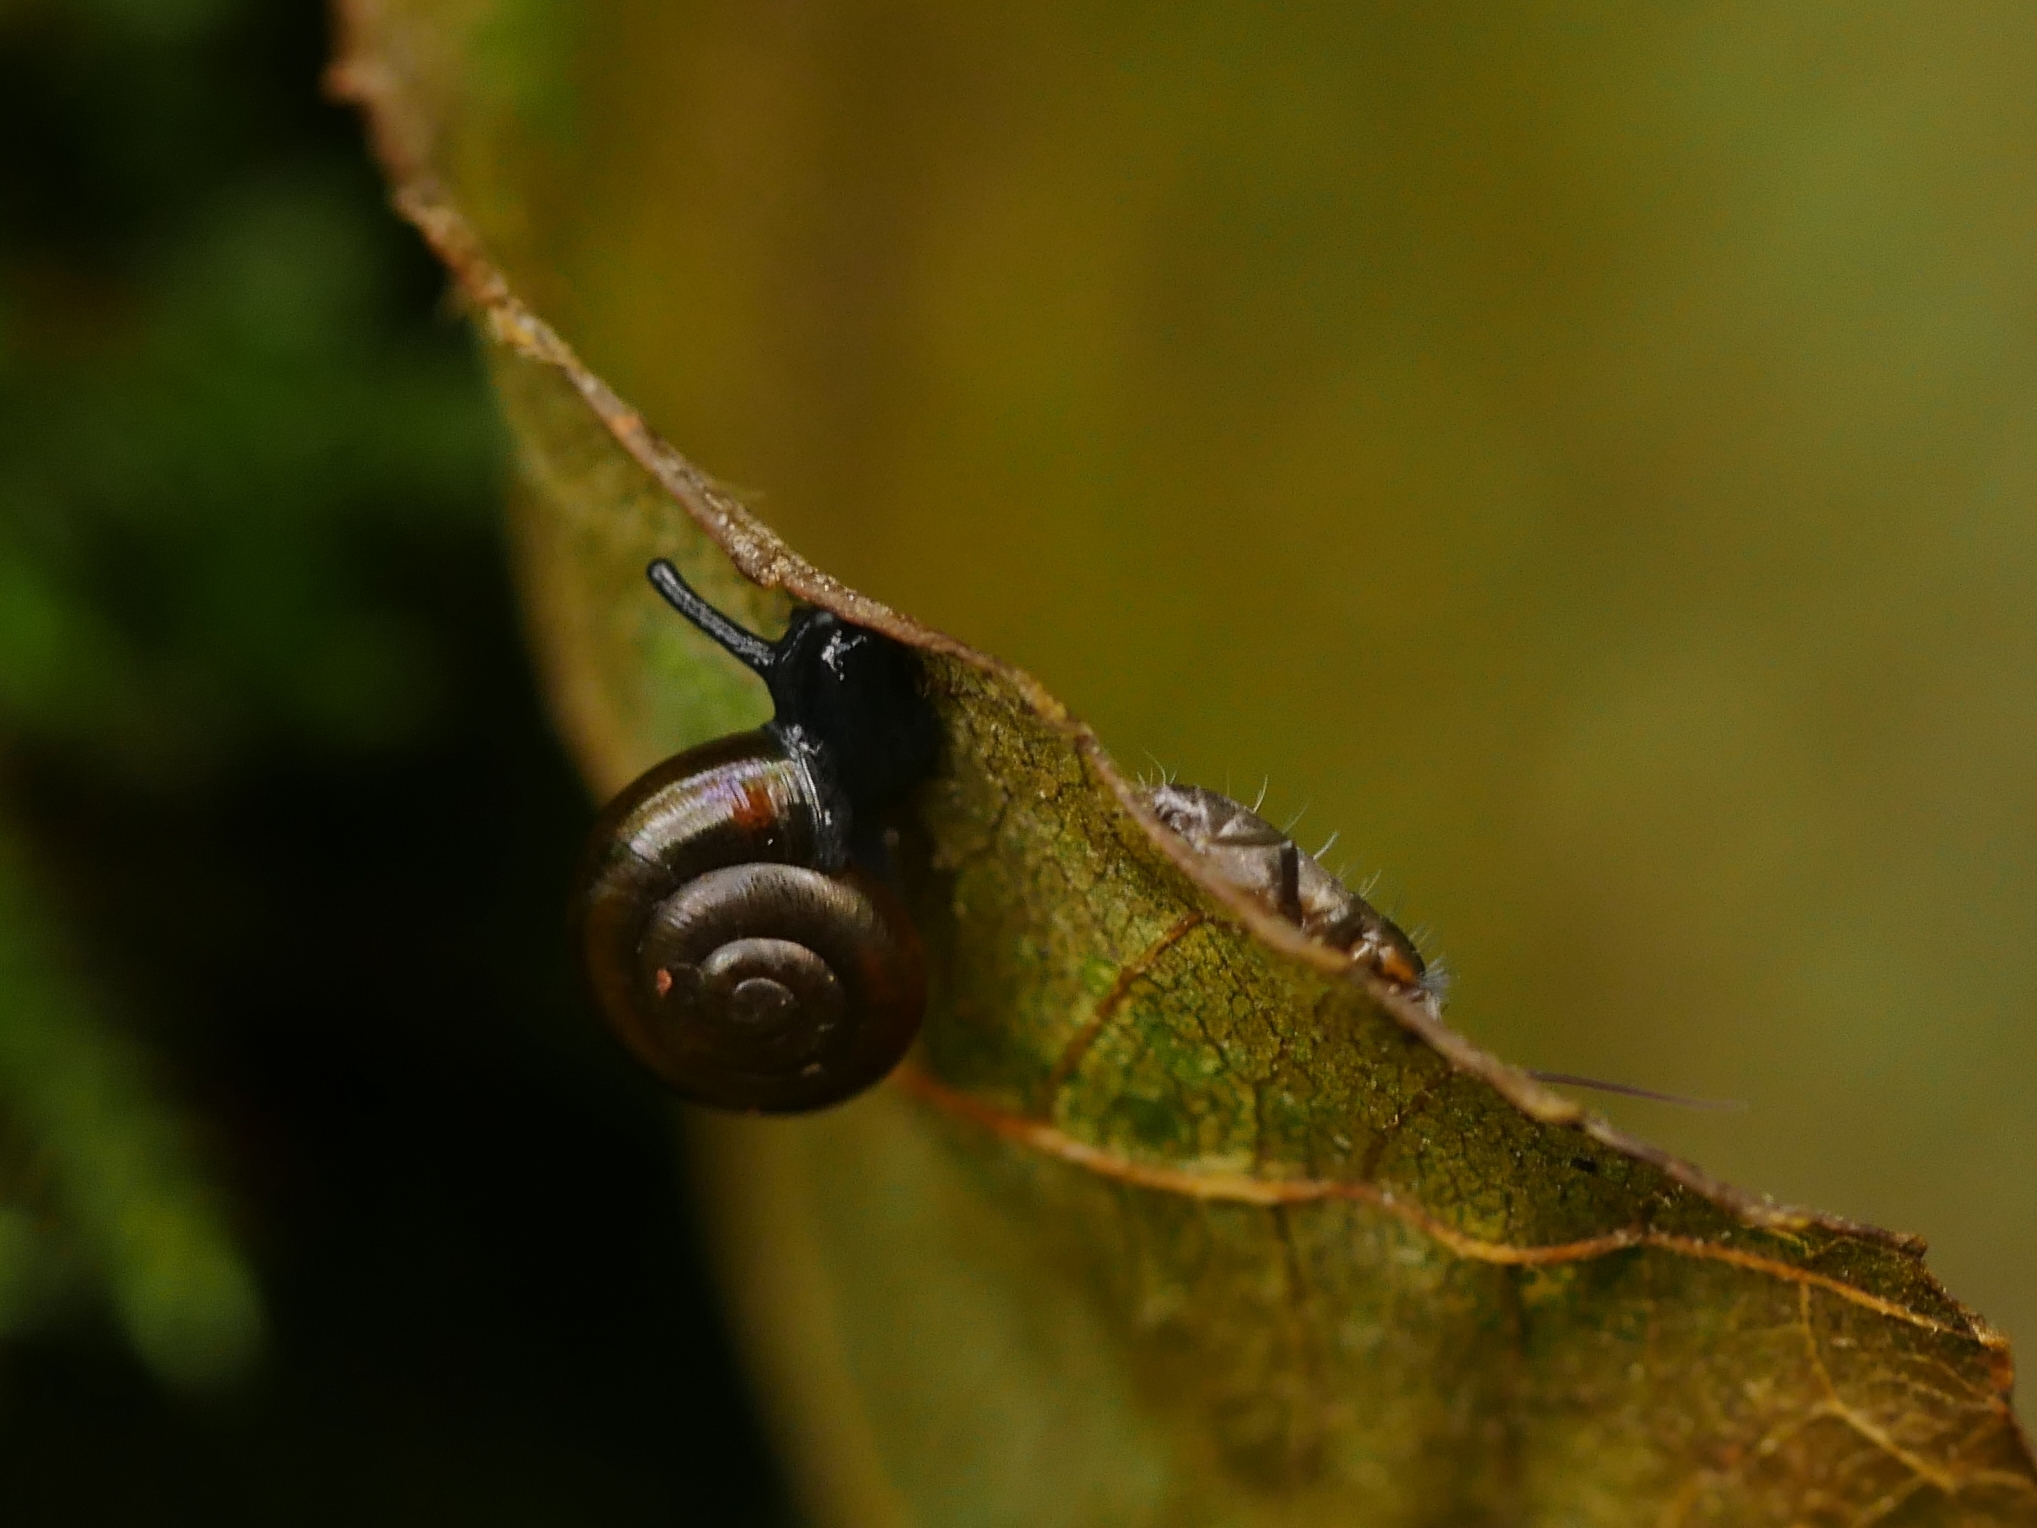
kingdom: Animalia
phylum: Mollusca
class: Gastropoda
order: Stylommatophora
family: Gastrodontidae
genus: Zonitoides
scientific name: Zonitoides nitidus
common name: Shiny glass snail
